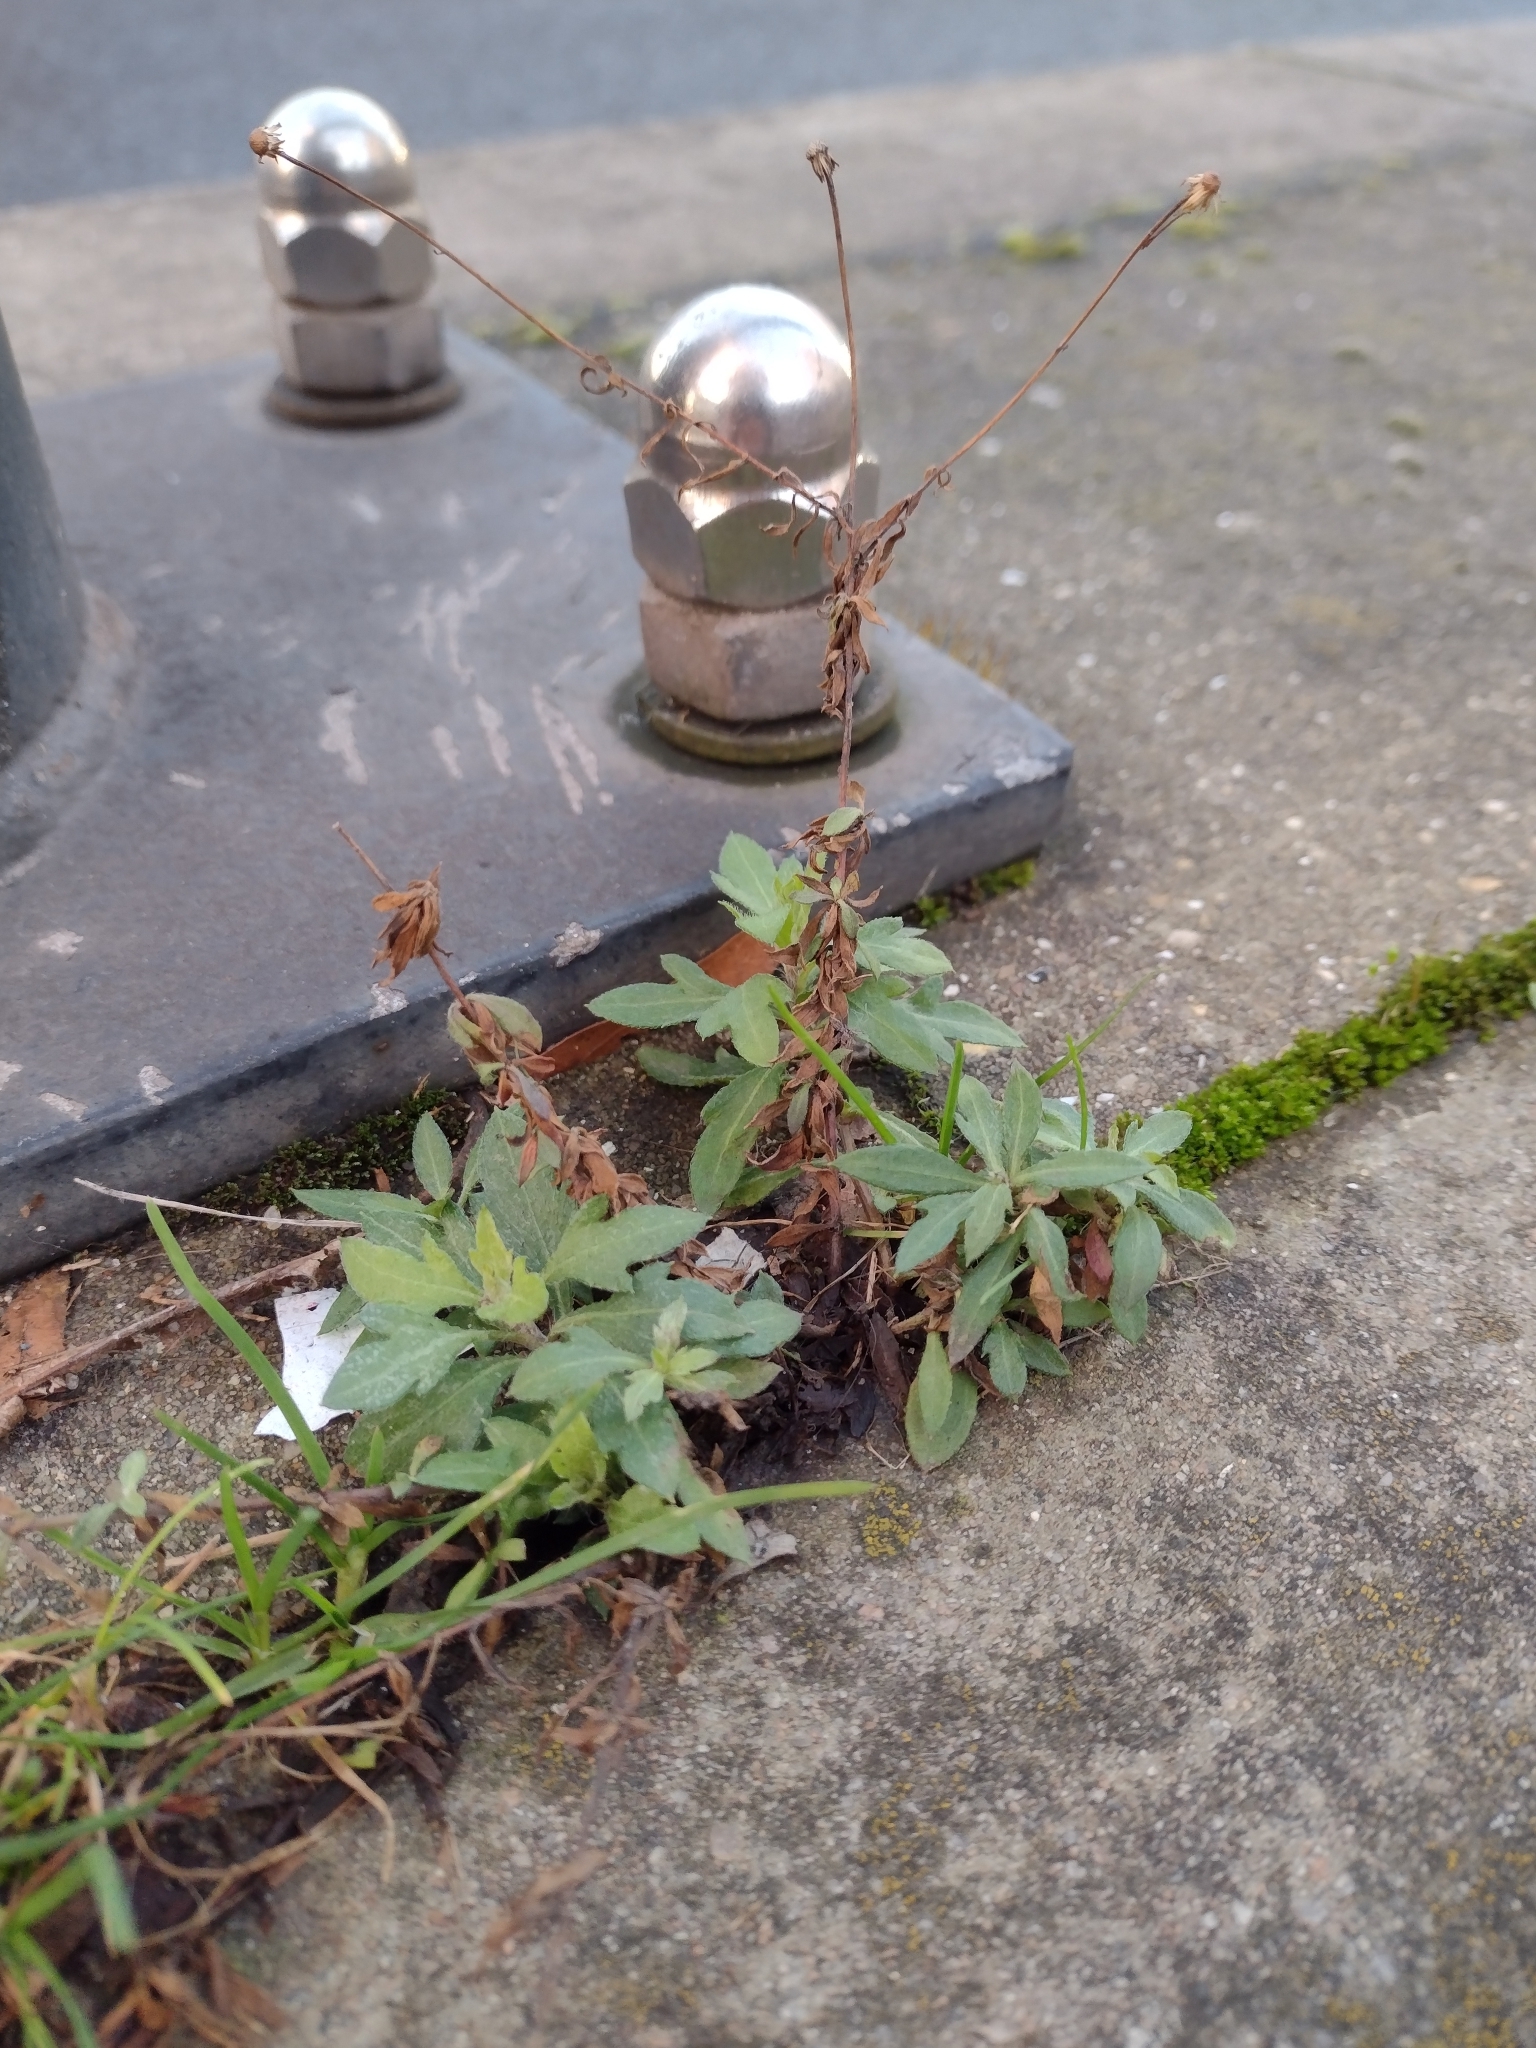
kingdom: Plantae
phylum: Tracheophyta
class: Magnoliopsida
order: Asterales
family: Asteraceae
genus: Erigeron
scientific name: Erigeron karvinskianus
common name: Mexican fleabane
